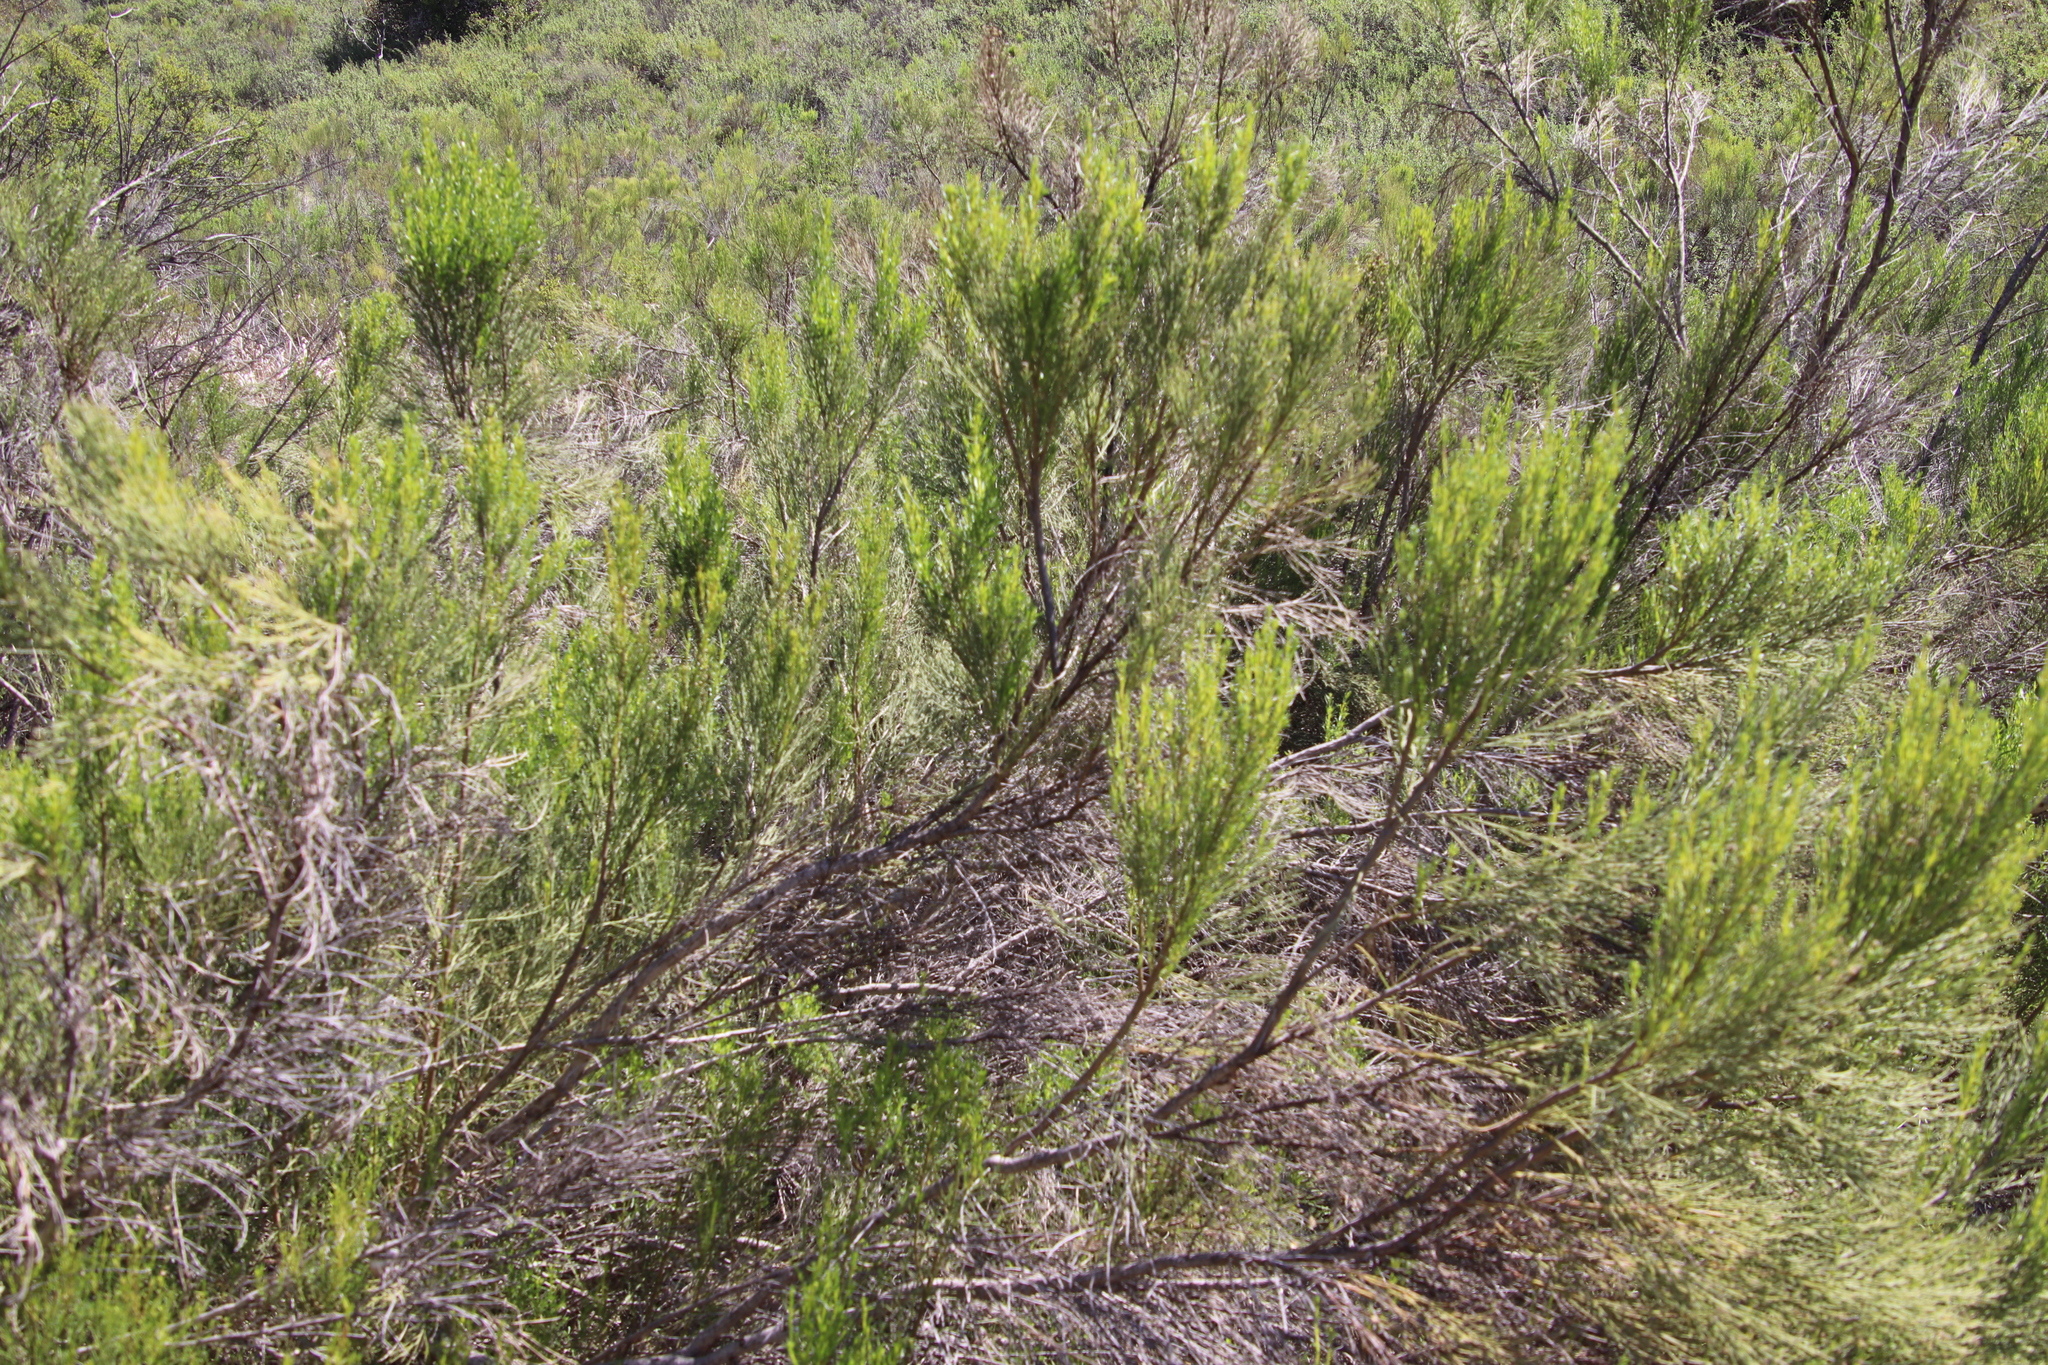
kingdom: Plantae
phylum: Tracheophyta
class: Magnoliopsida
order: Asterales
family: Asteraceae
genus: Baccharis
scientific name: Baccharis sarothroides
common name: Desert-broom
